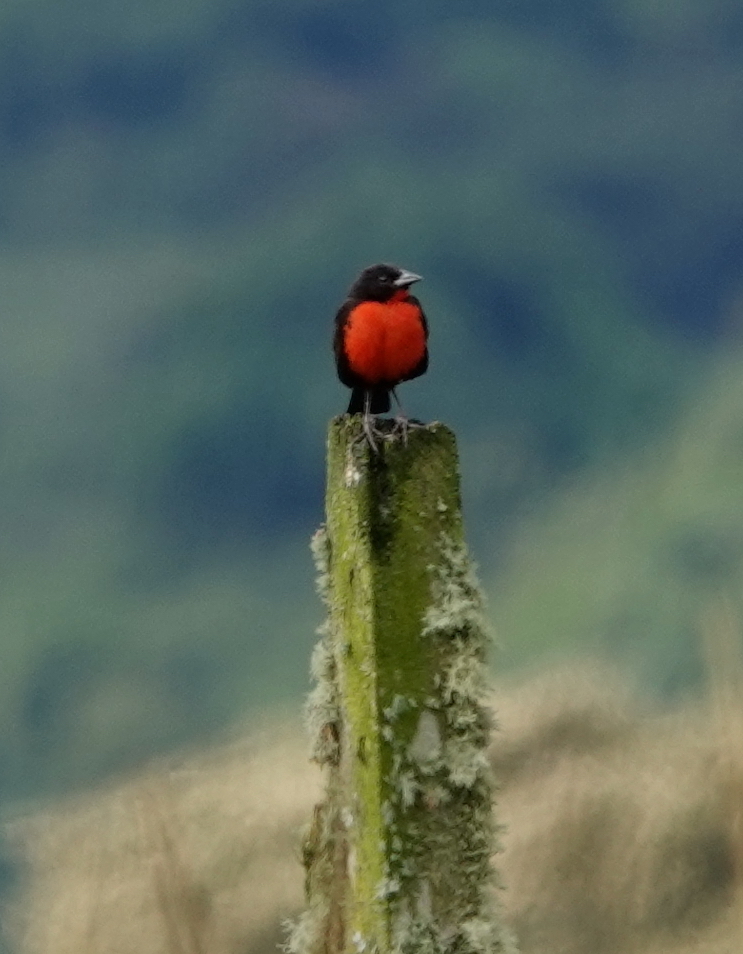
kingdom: Animalia
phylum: Chordata
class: Aves
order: Passeriformes
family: Icteridae
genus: Sturnella
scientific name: Sturnella militaris
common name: Red-breasted blackbird
